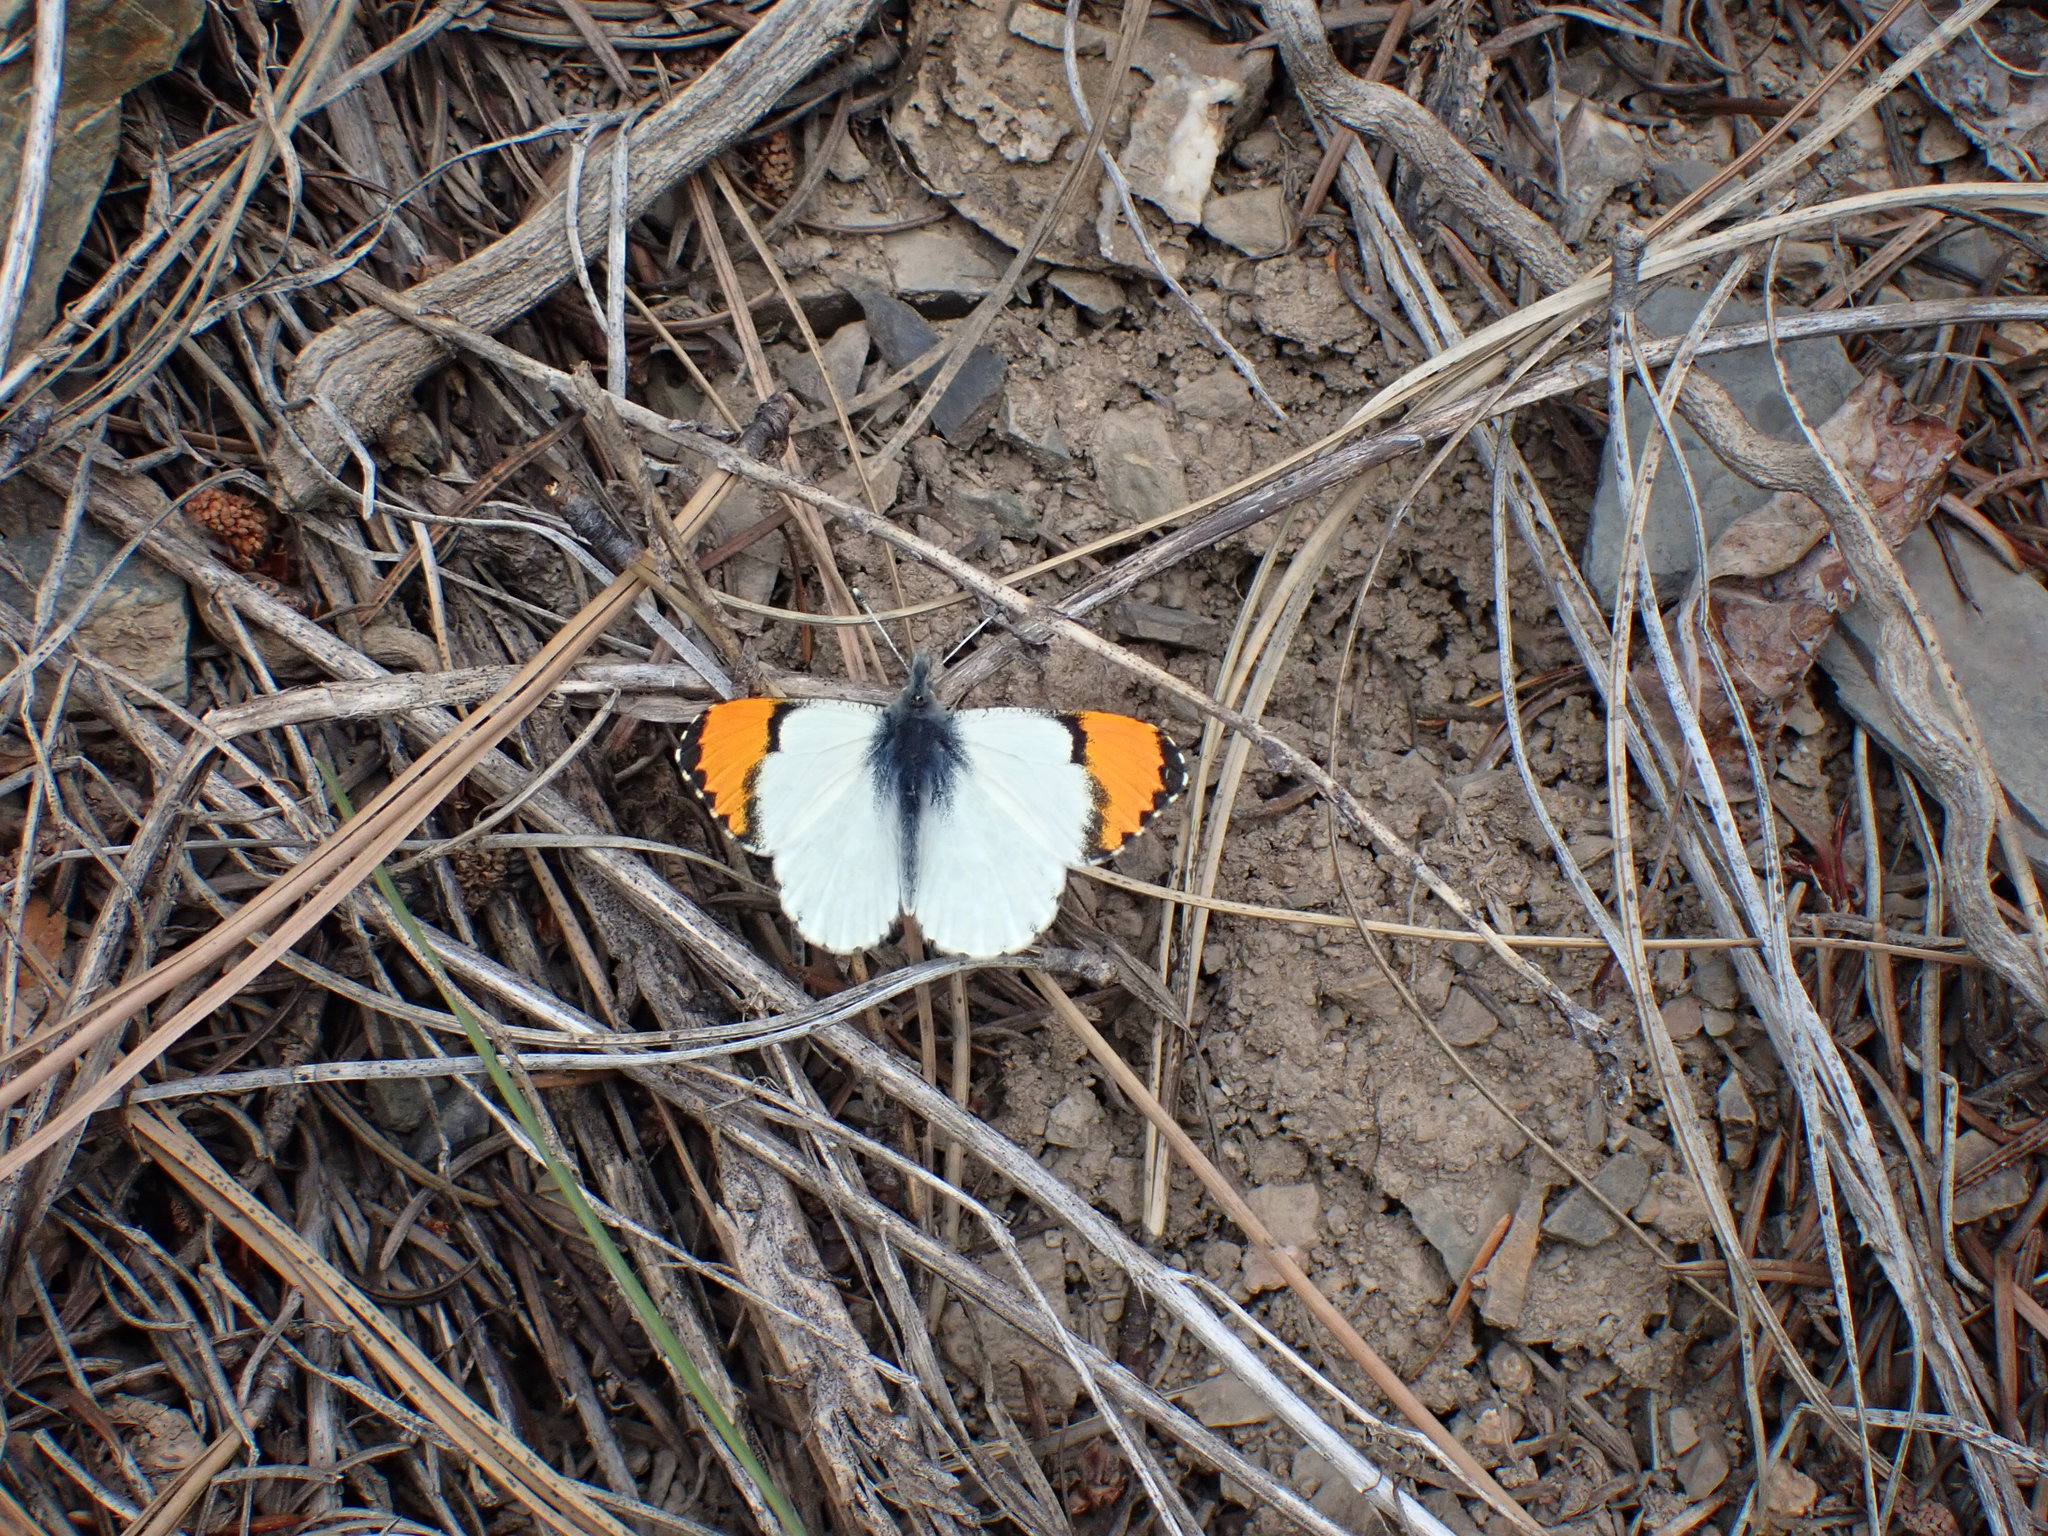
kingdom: Animalia
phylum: Arthropoda
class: Insecta
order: Lepidoptera
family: Pieridae
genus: Anthocharis
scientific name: Anthocharis julia
